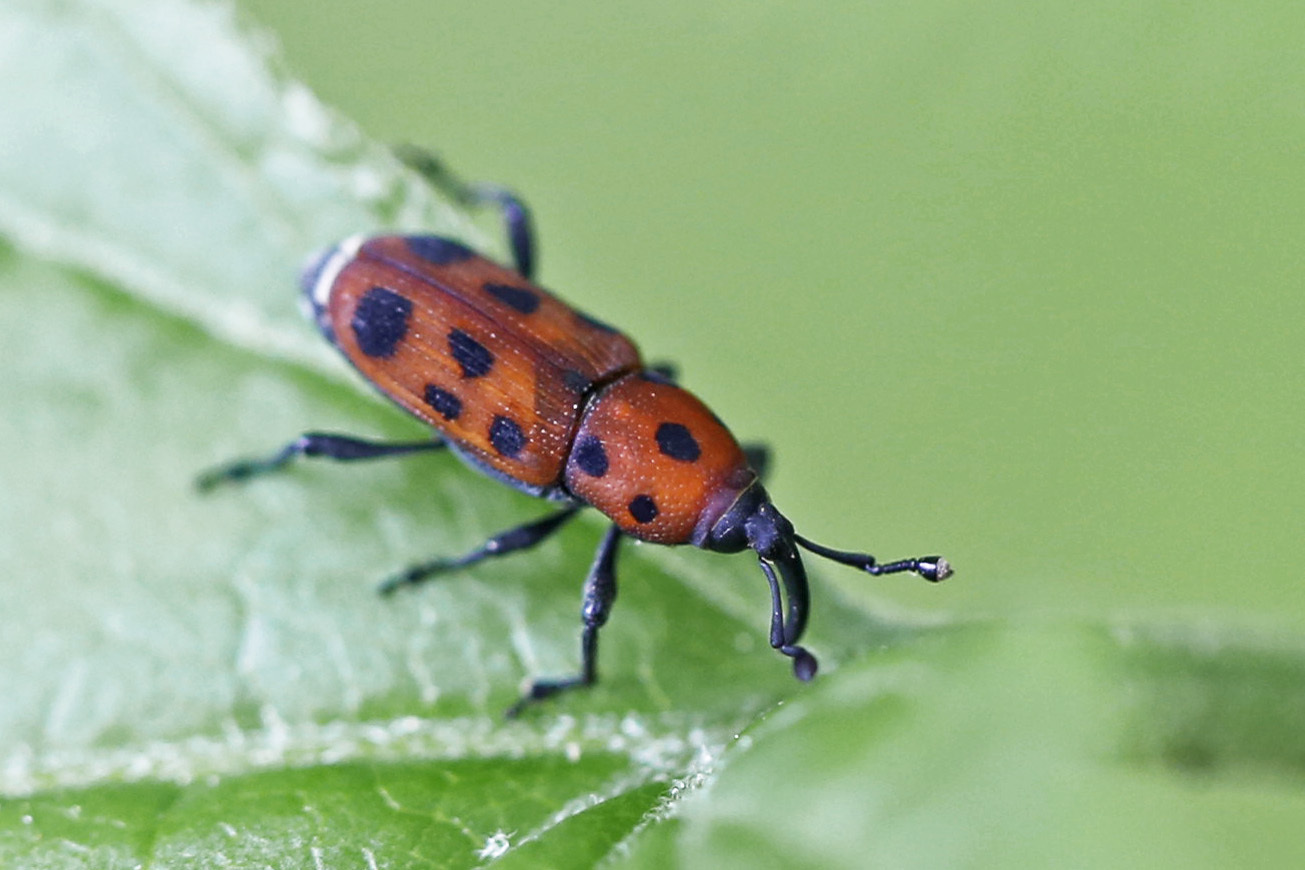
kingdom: Animalia
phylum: Arthropoda
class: Insecta
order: Coleoptera
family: Dryophthoridae
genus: Rhodobaenus
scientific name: Rhodobaenus tredecimpunctatus
